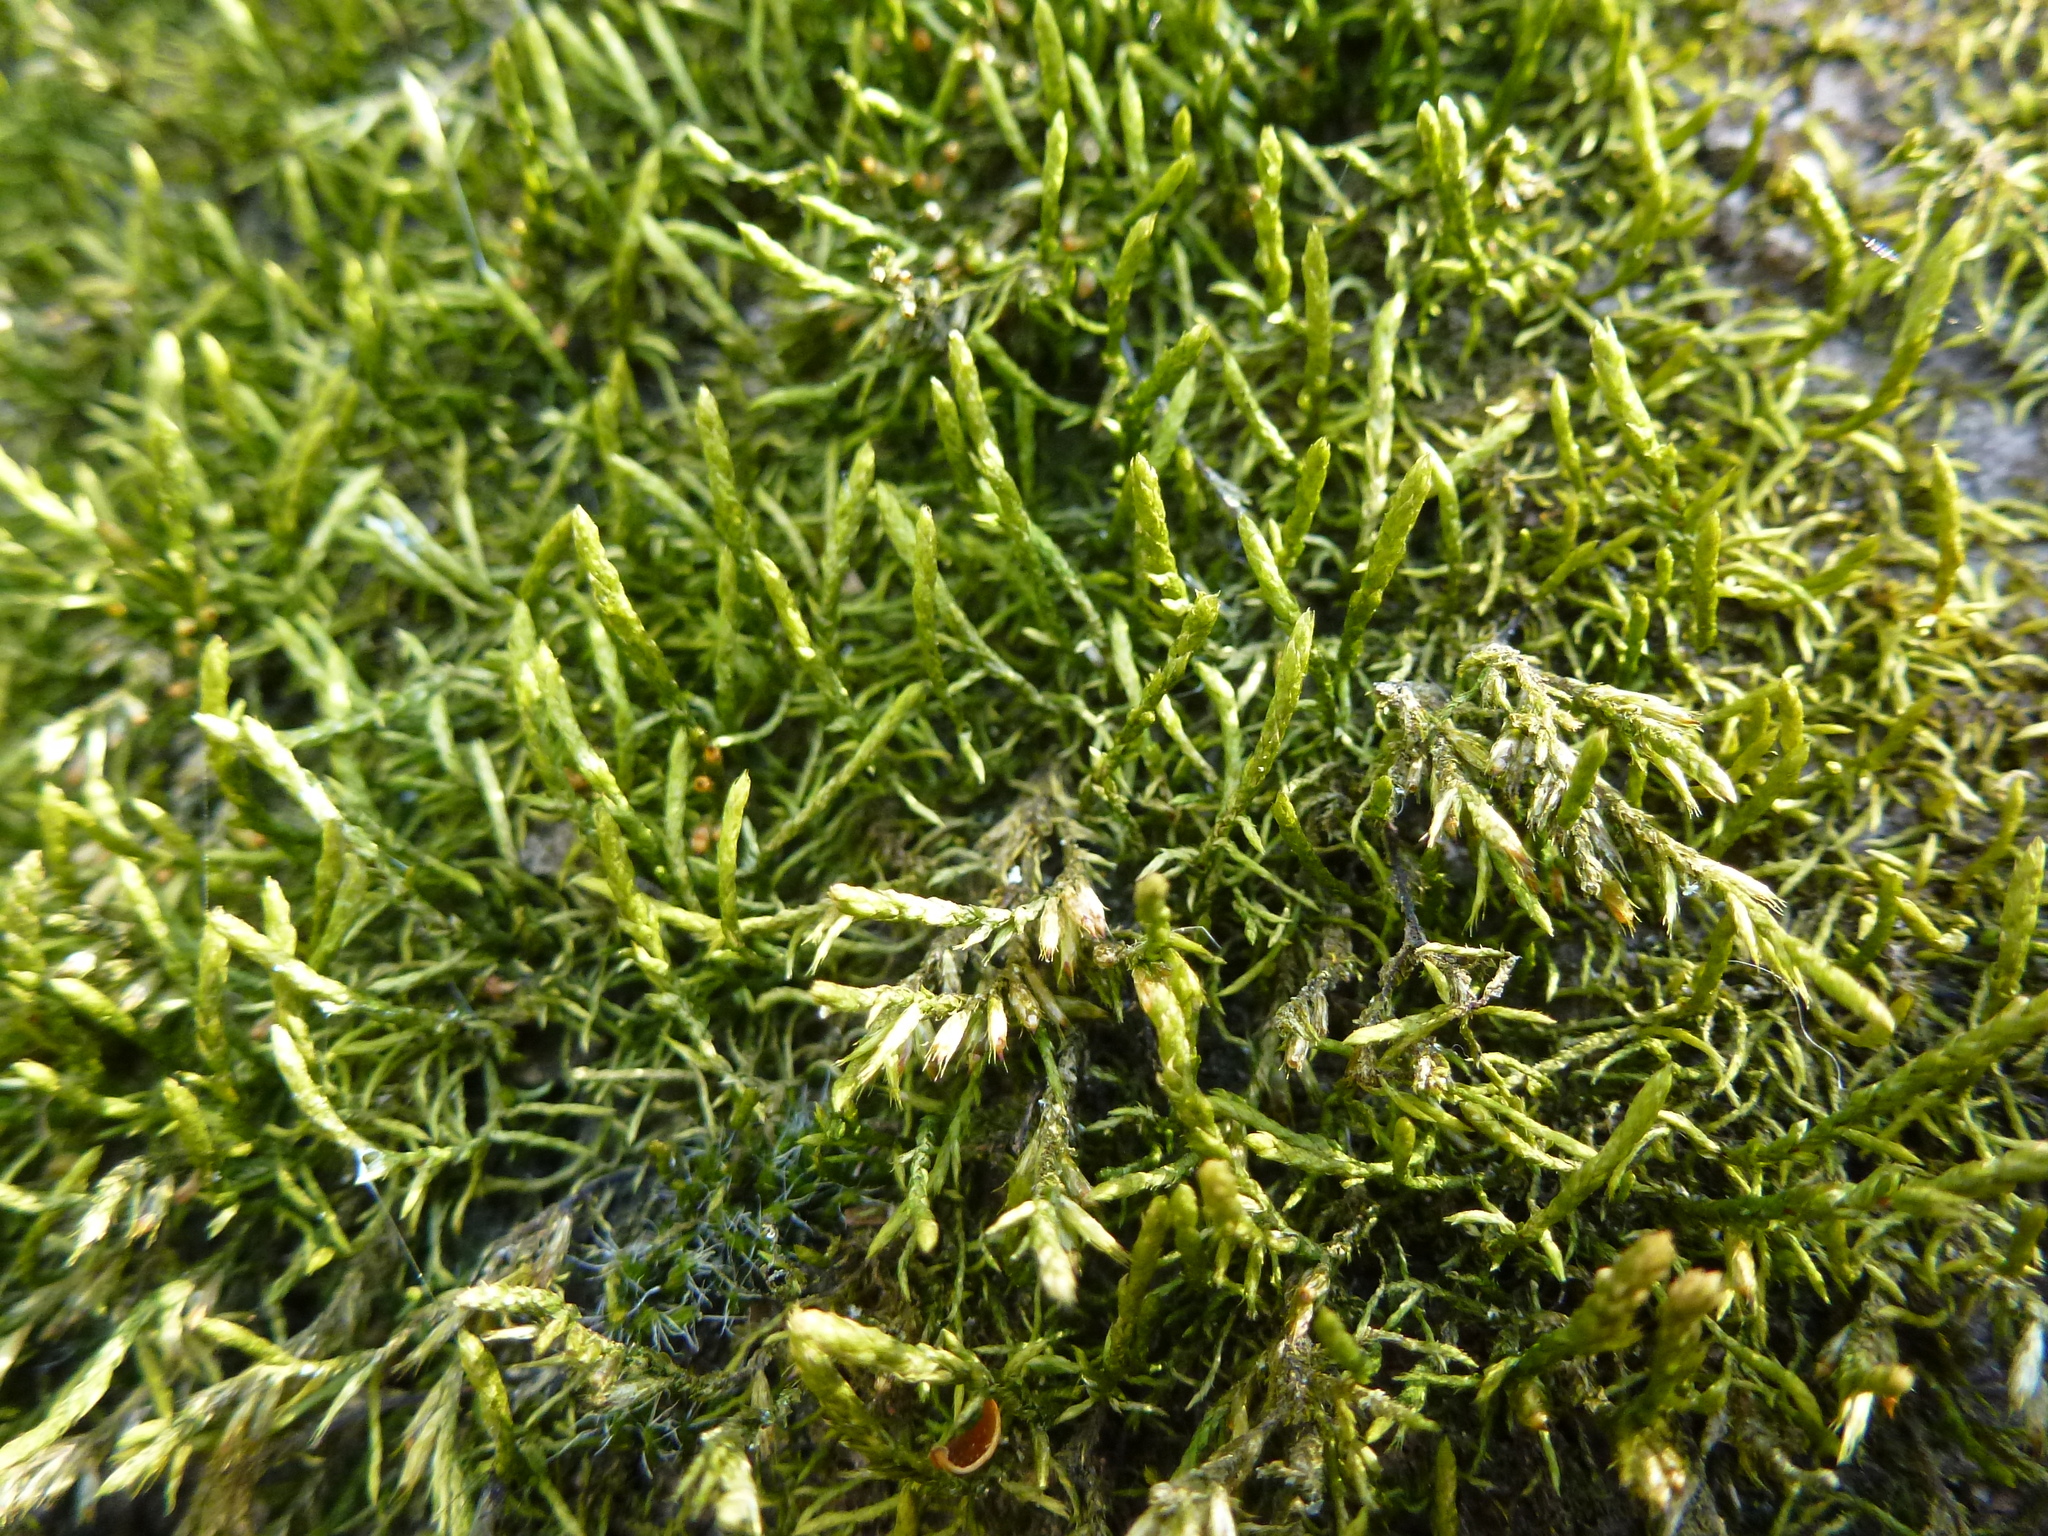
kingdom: Plantae
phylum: Bryophyta
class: Bryopsida
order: Hypnales
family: Cryphaeaceae
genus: Cryphaea
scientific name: Cryphaea heteromalla
